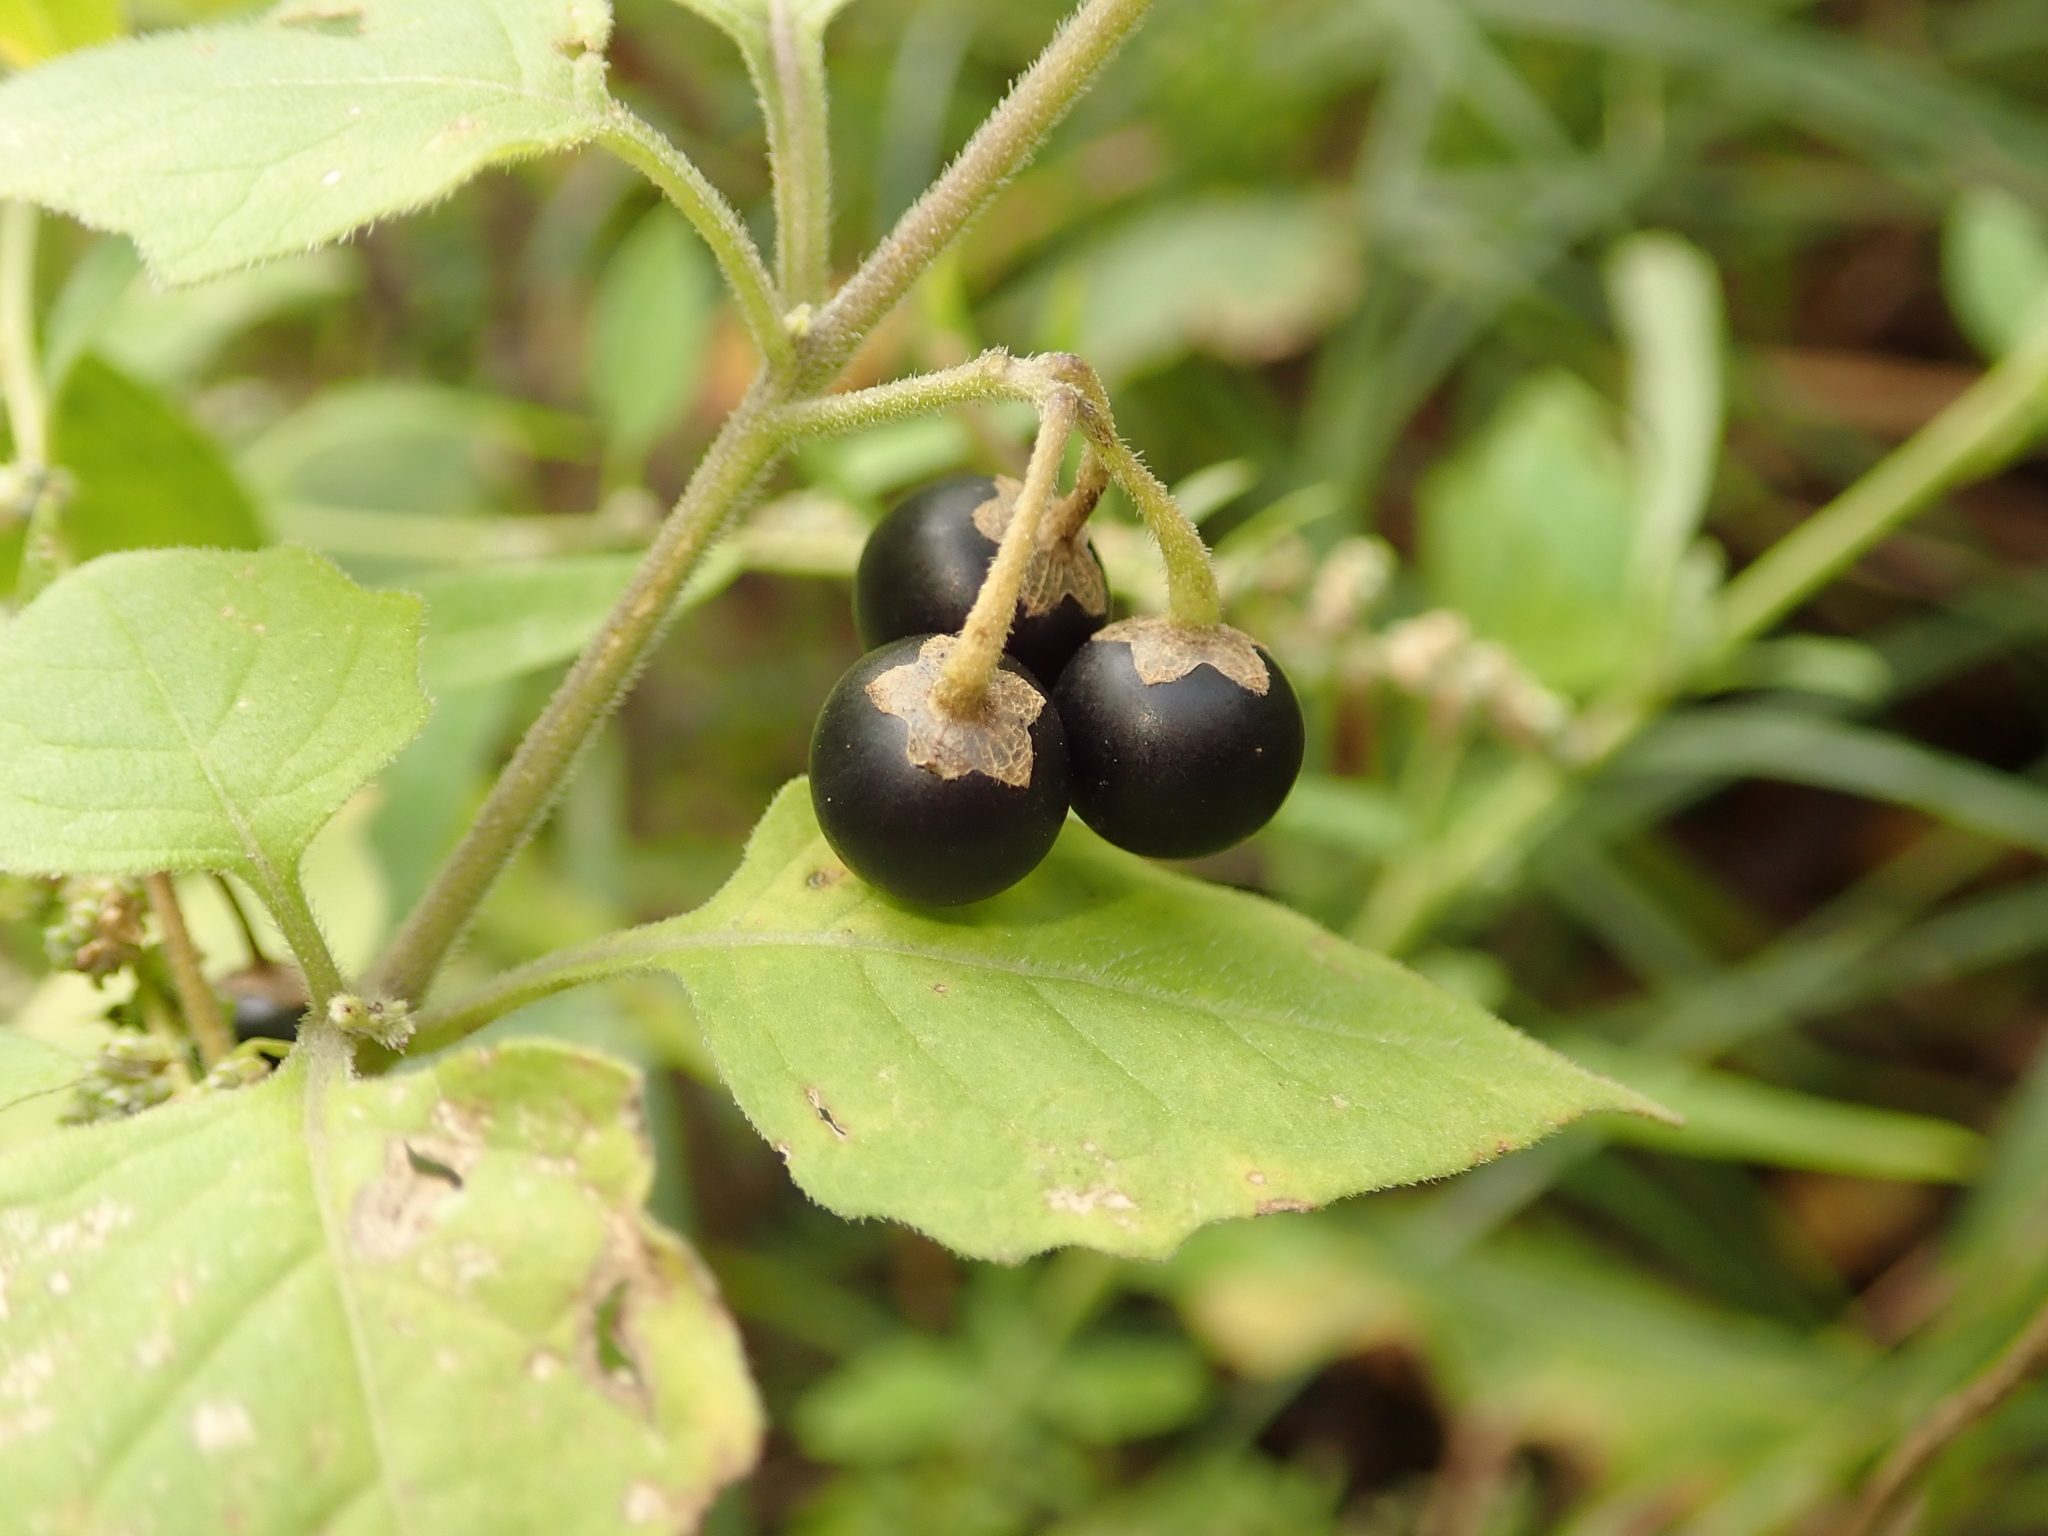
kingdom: Plantae
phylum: Tracheophyta
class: Magnoliopsida
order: Solanales
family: Solanaceae
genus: Solanum
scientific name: Solanum nigrum
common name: Black nightshade
